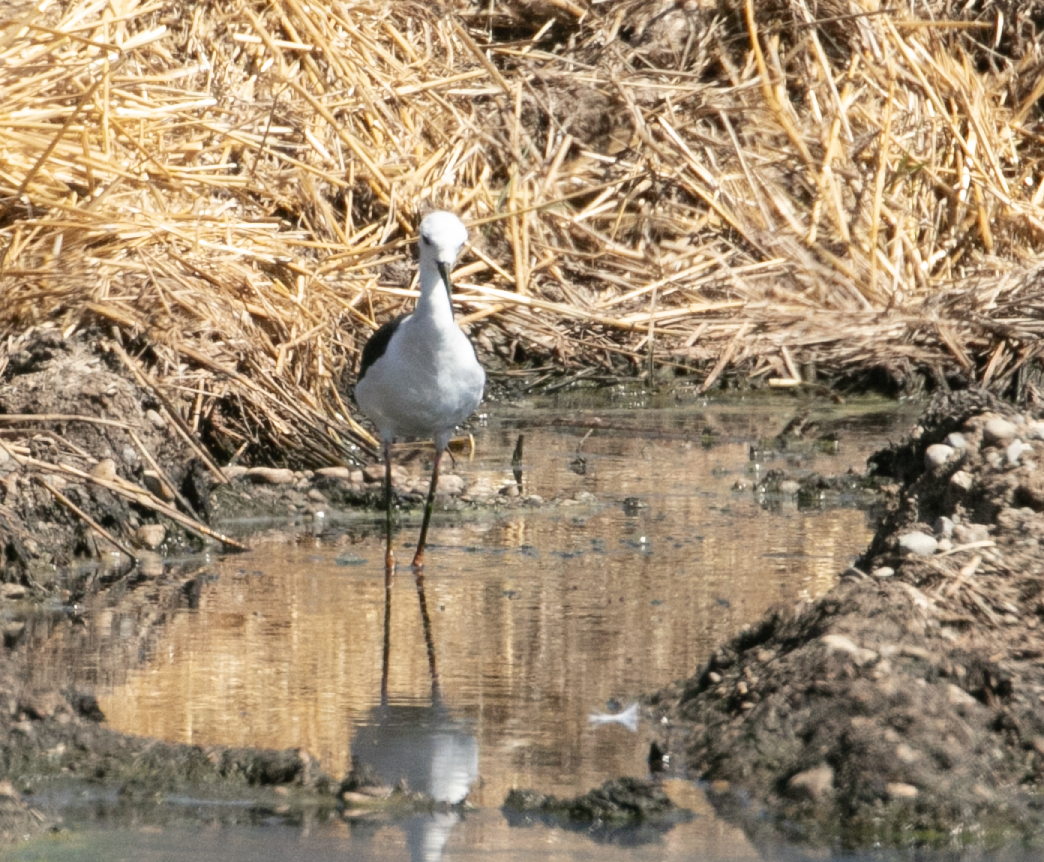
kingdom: Animalia
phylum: Chordata
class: Aves
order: Charadriiformes
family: Recurvirostridae
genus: Himantopus
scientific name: Himantopus himantopus
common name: Black-winged stilt
